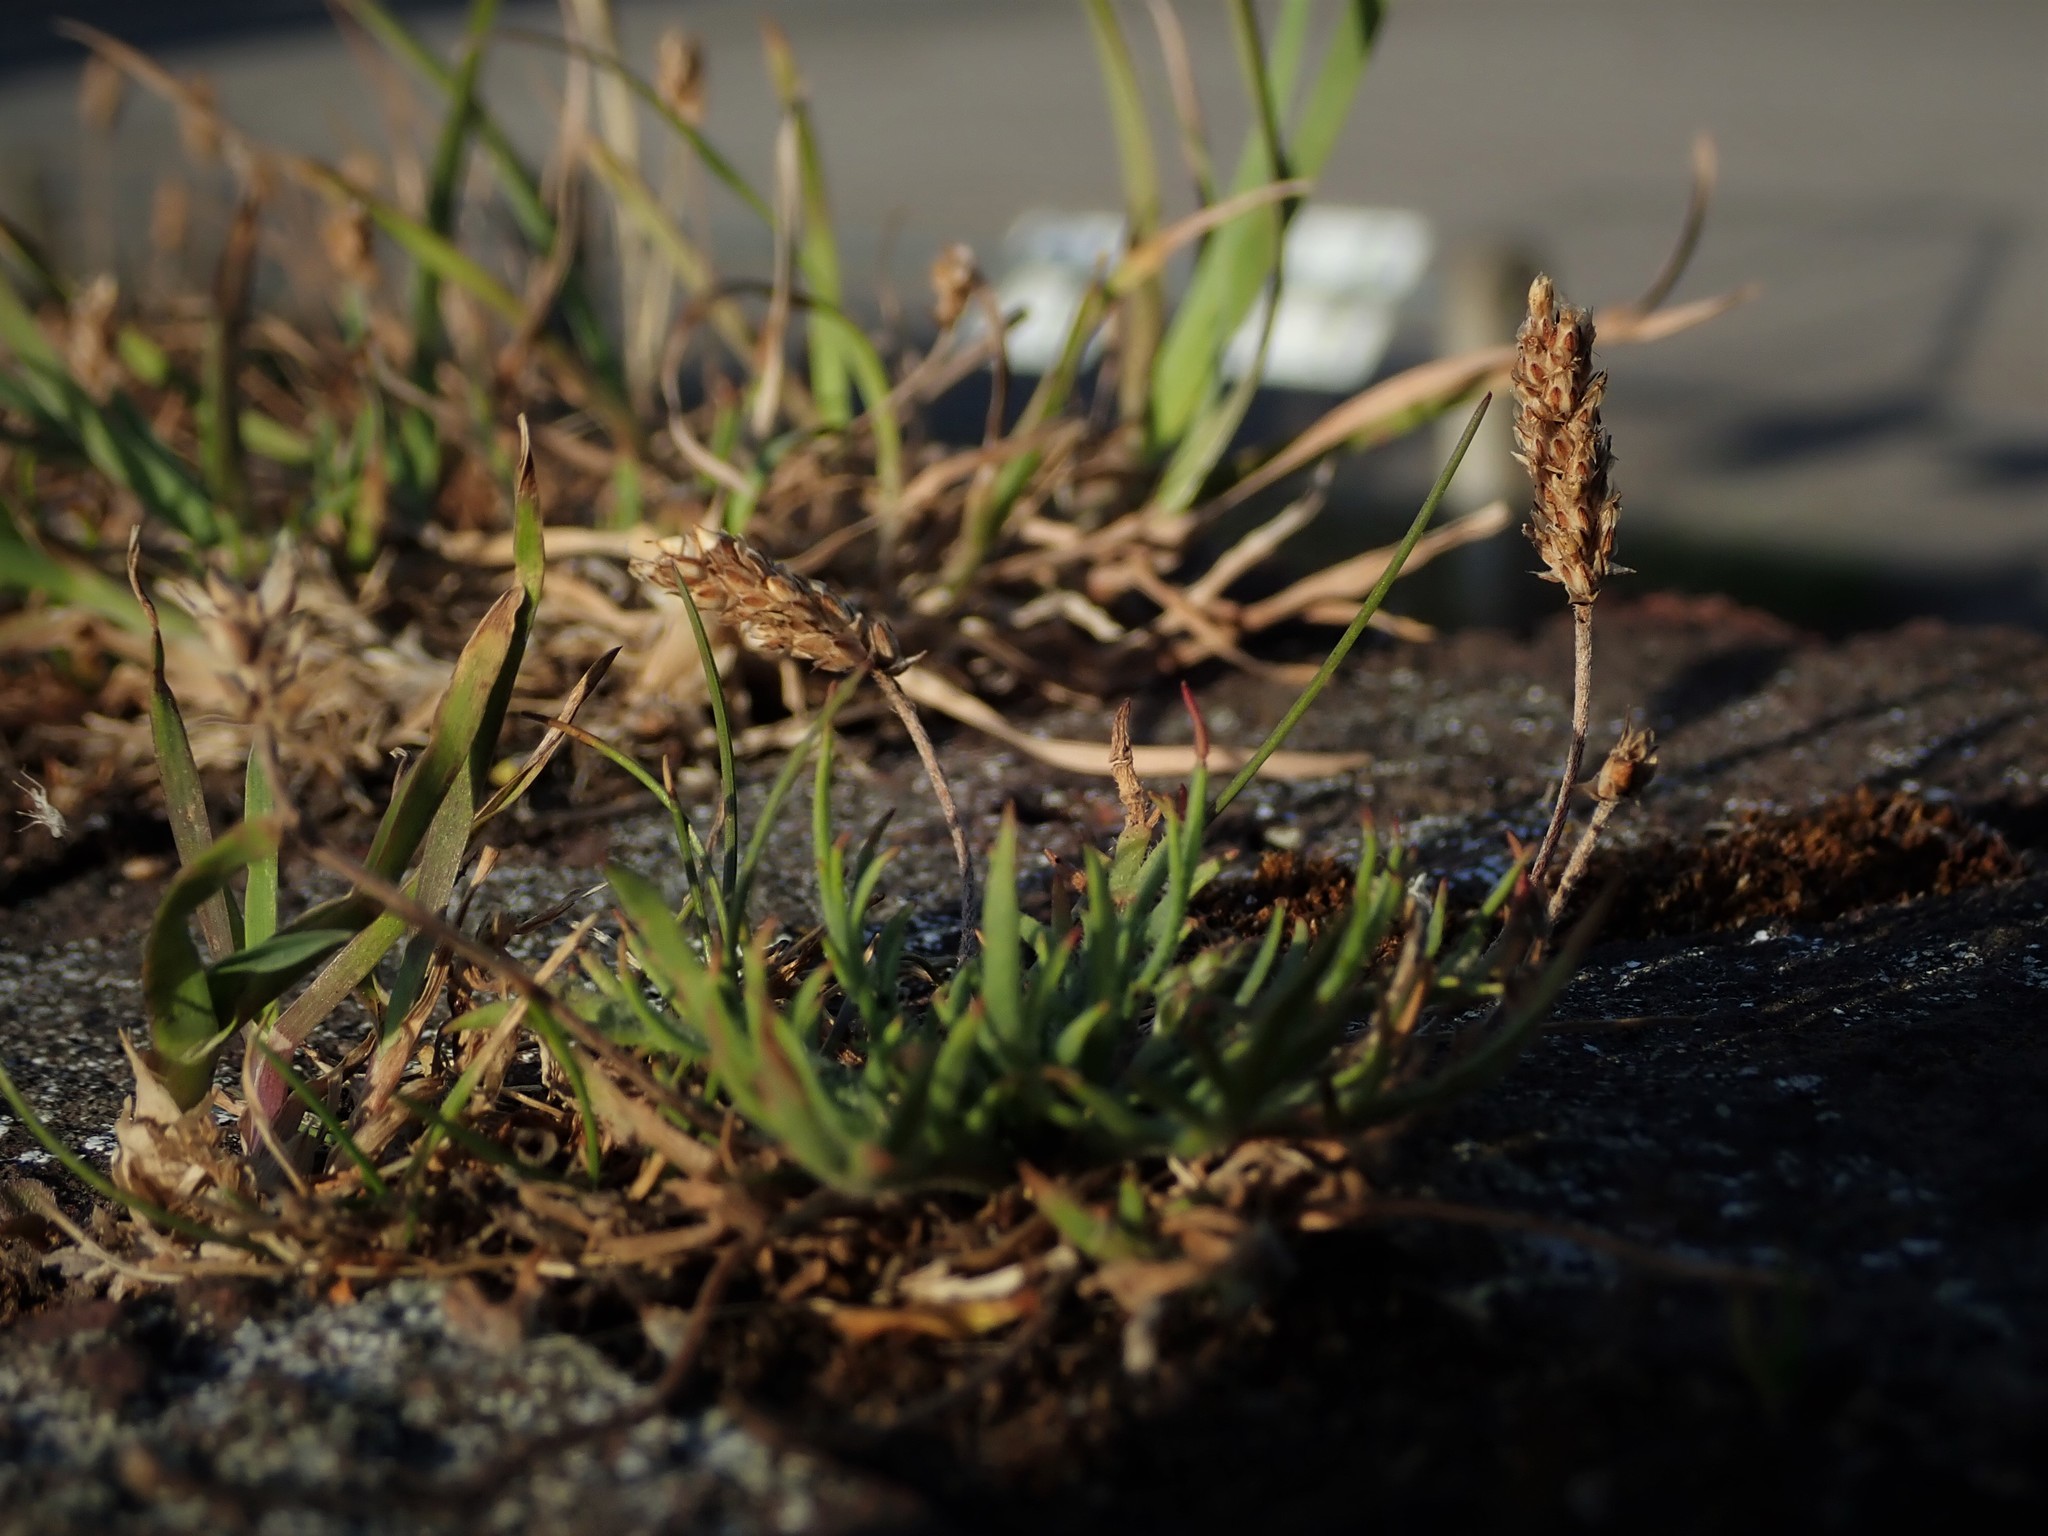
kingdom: Plantae
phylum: Tracheophyta
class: Magnoliopsida
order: Lamiales
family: Plantaginaceae
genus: Plantago
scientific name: Plantago coronopus
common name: Buck's-horn plantain
